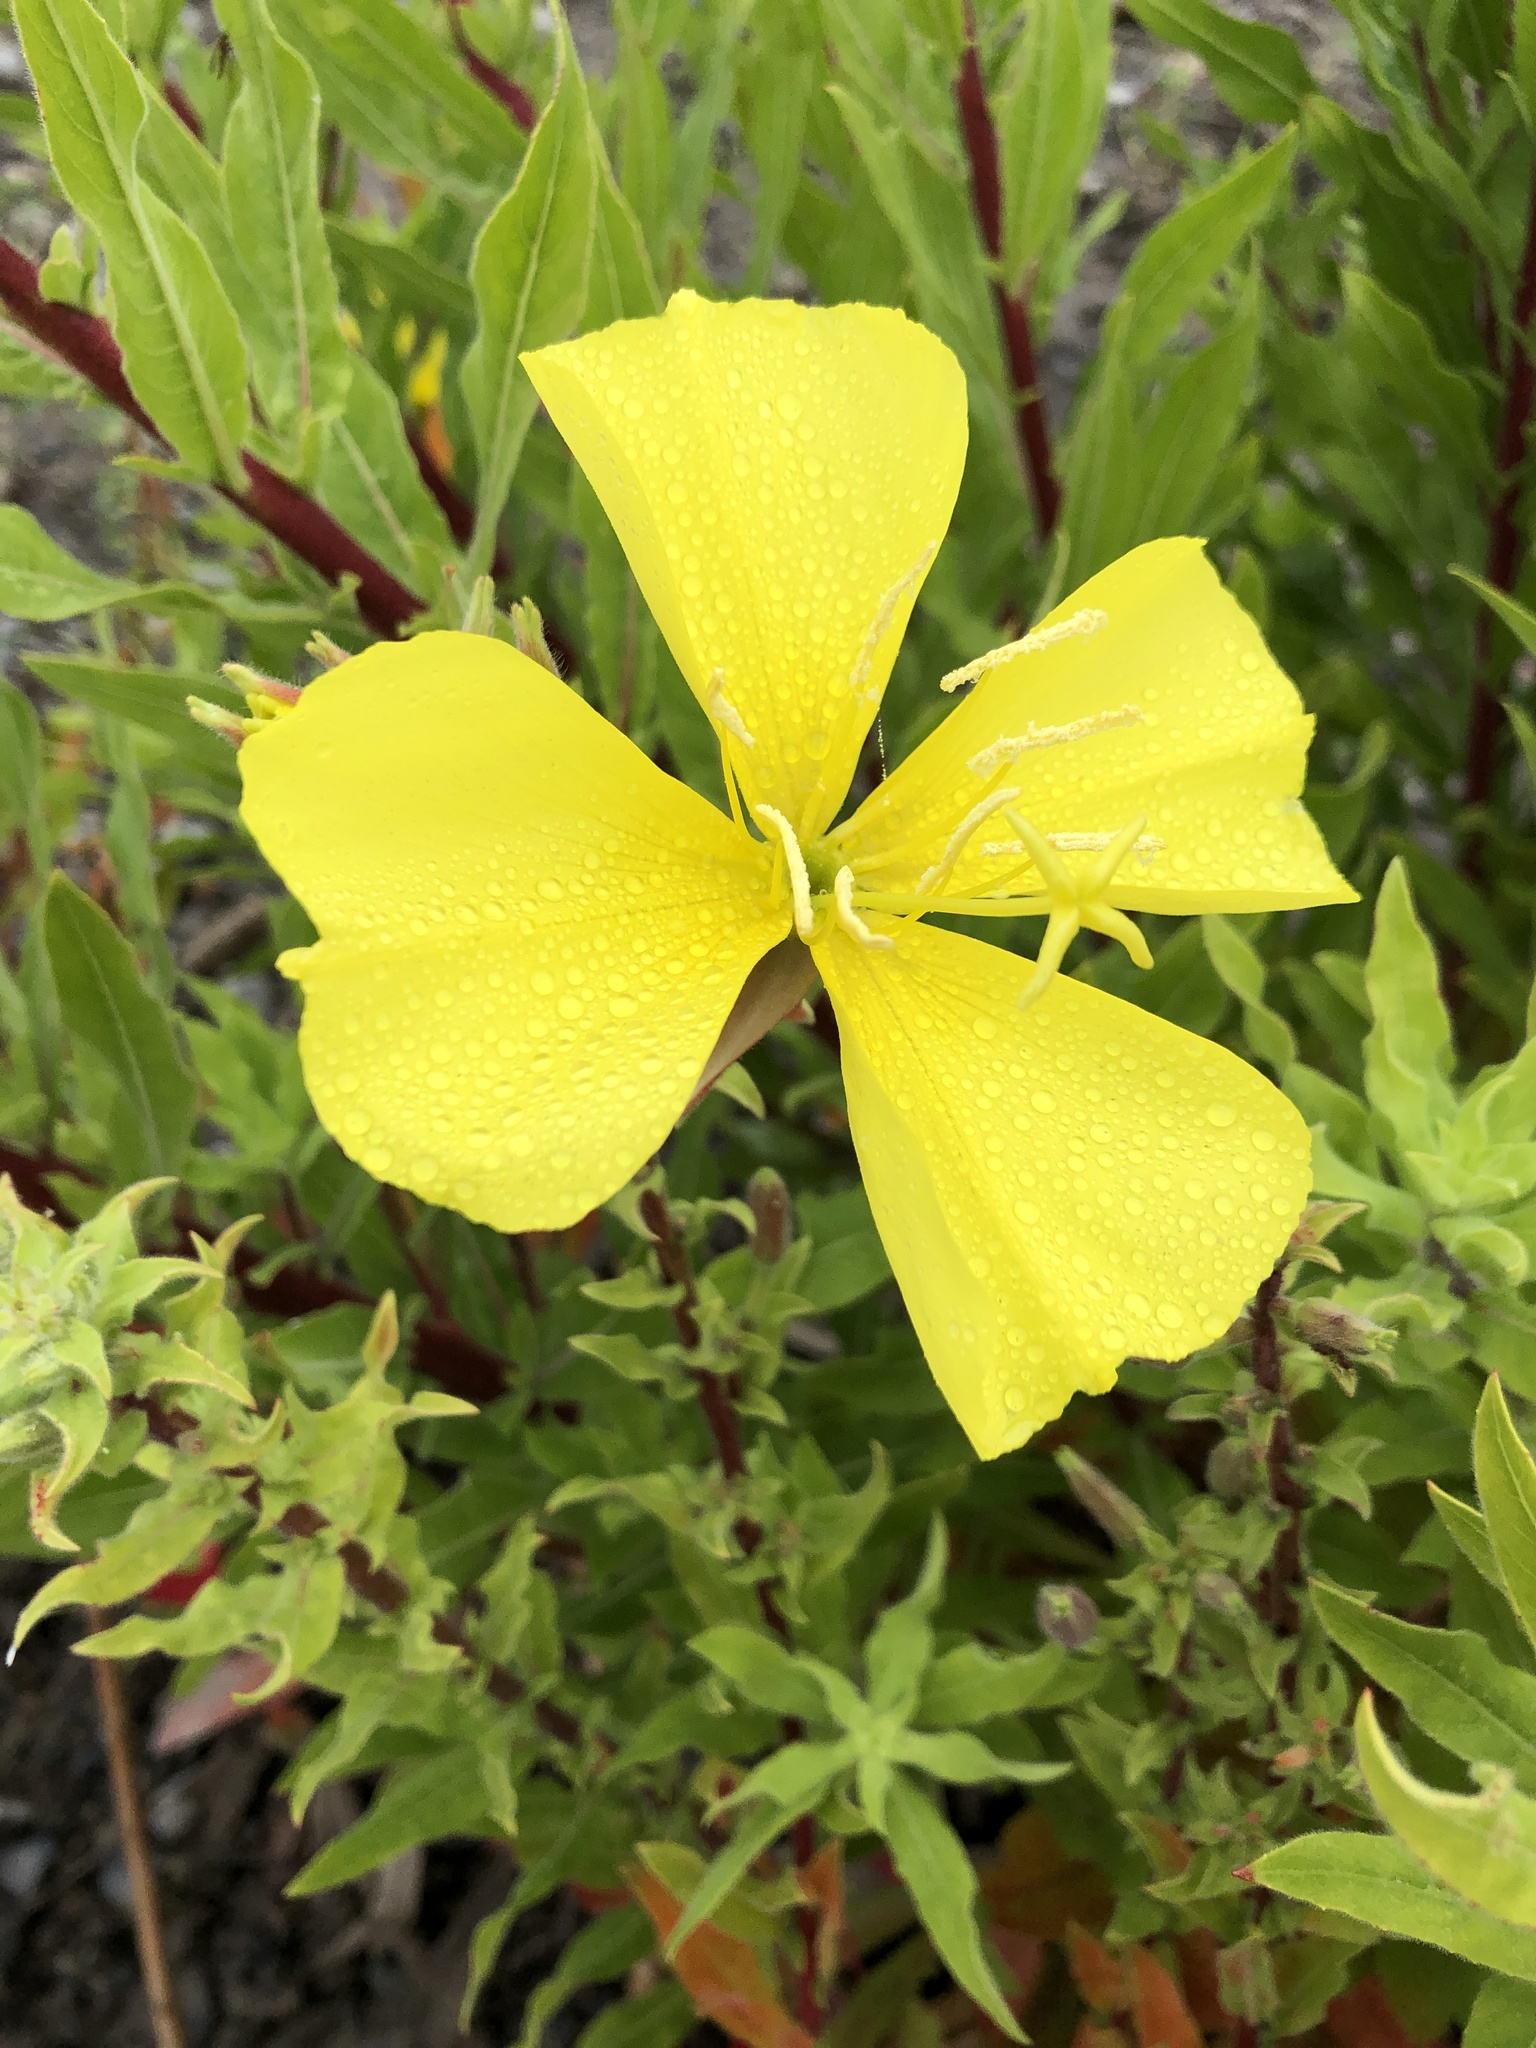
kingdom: Plantae
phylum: Tracheophyta
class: Magnoliopsida
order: Myrtales
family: Onagraceae
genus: Oenothera
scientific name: Oenothera elata
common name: Hooker's evening-primrose
